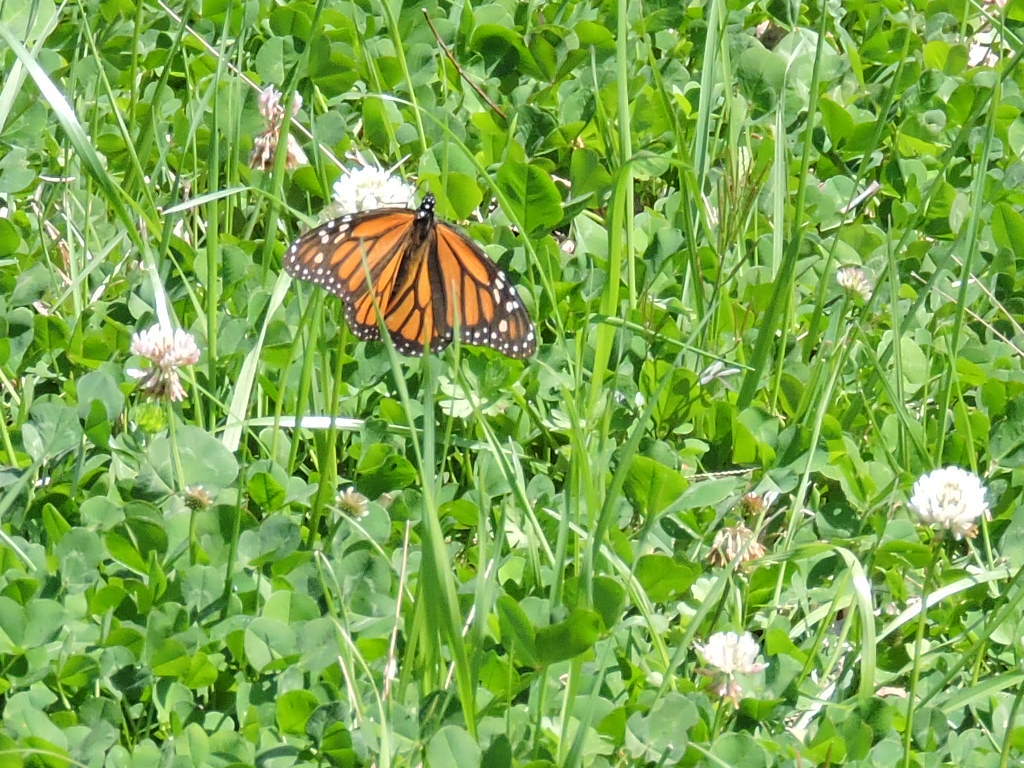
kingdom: Animalia
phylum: Arthropoda
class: Insecta
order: Lepidoptera
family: Nymphalidae
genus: Danaus
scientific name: Danaus plexippus
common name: Monarch
